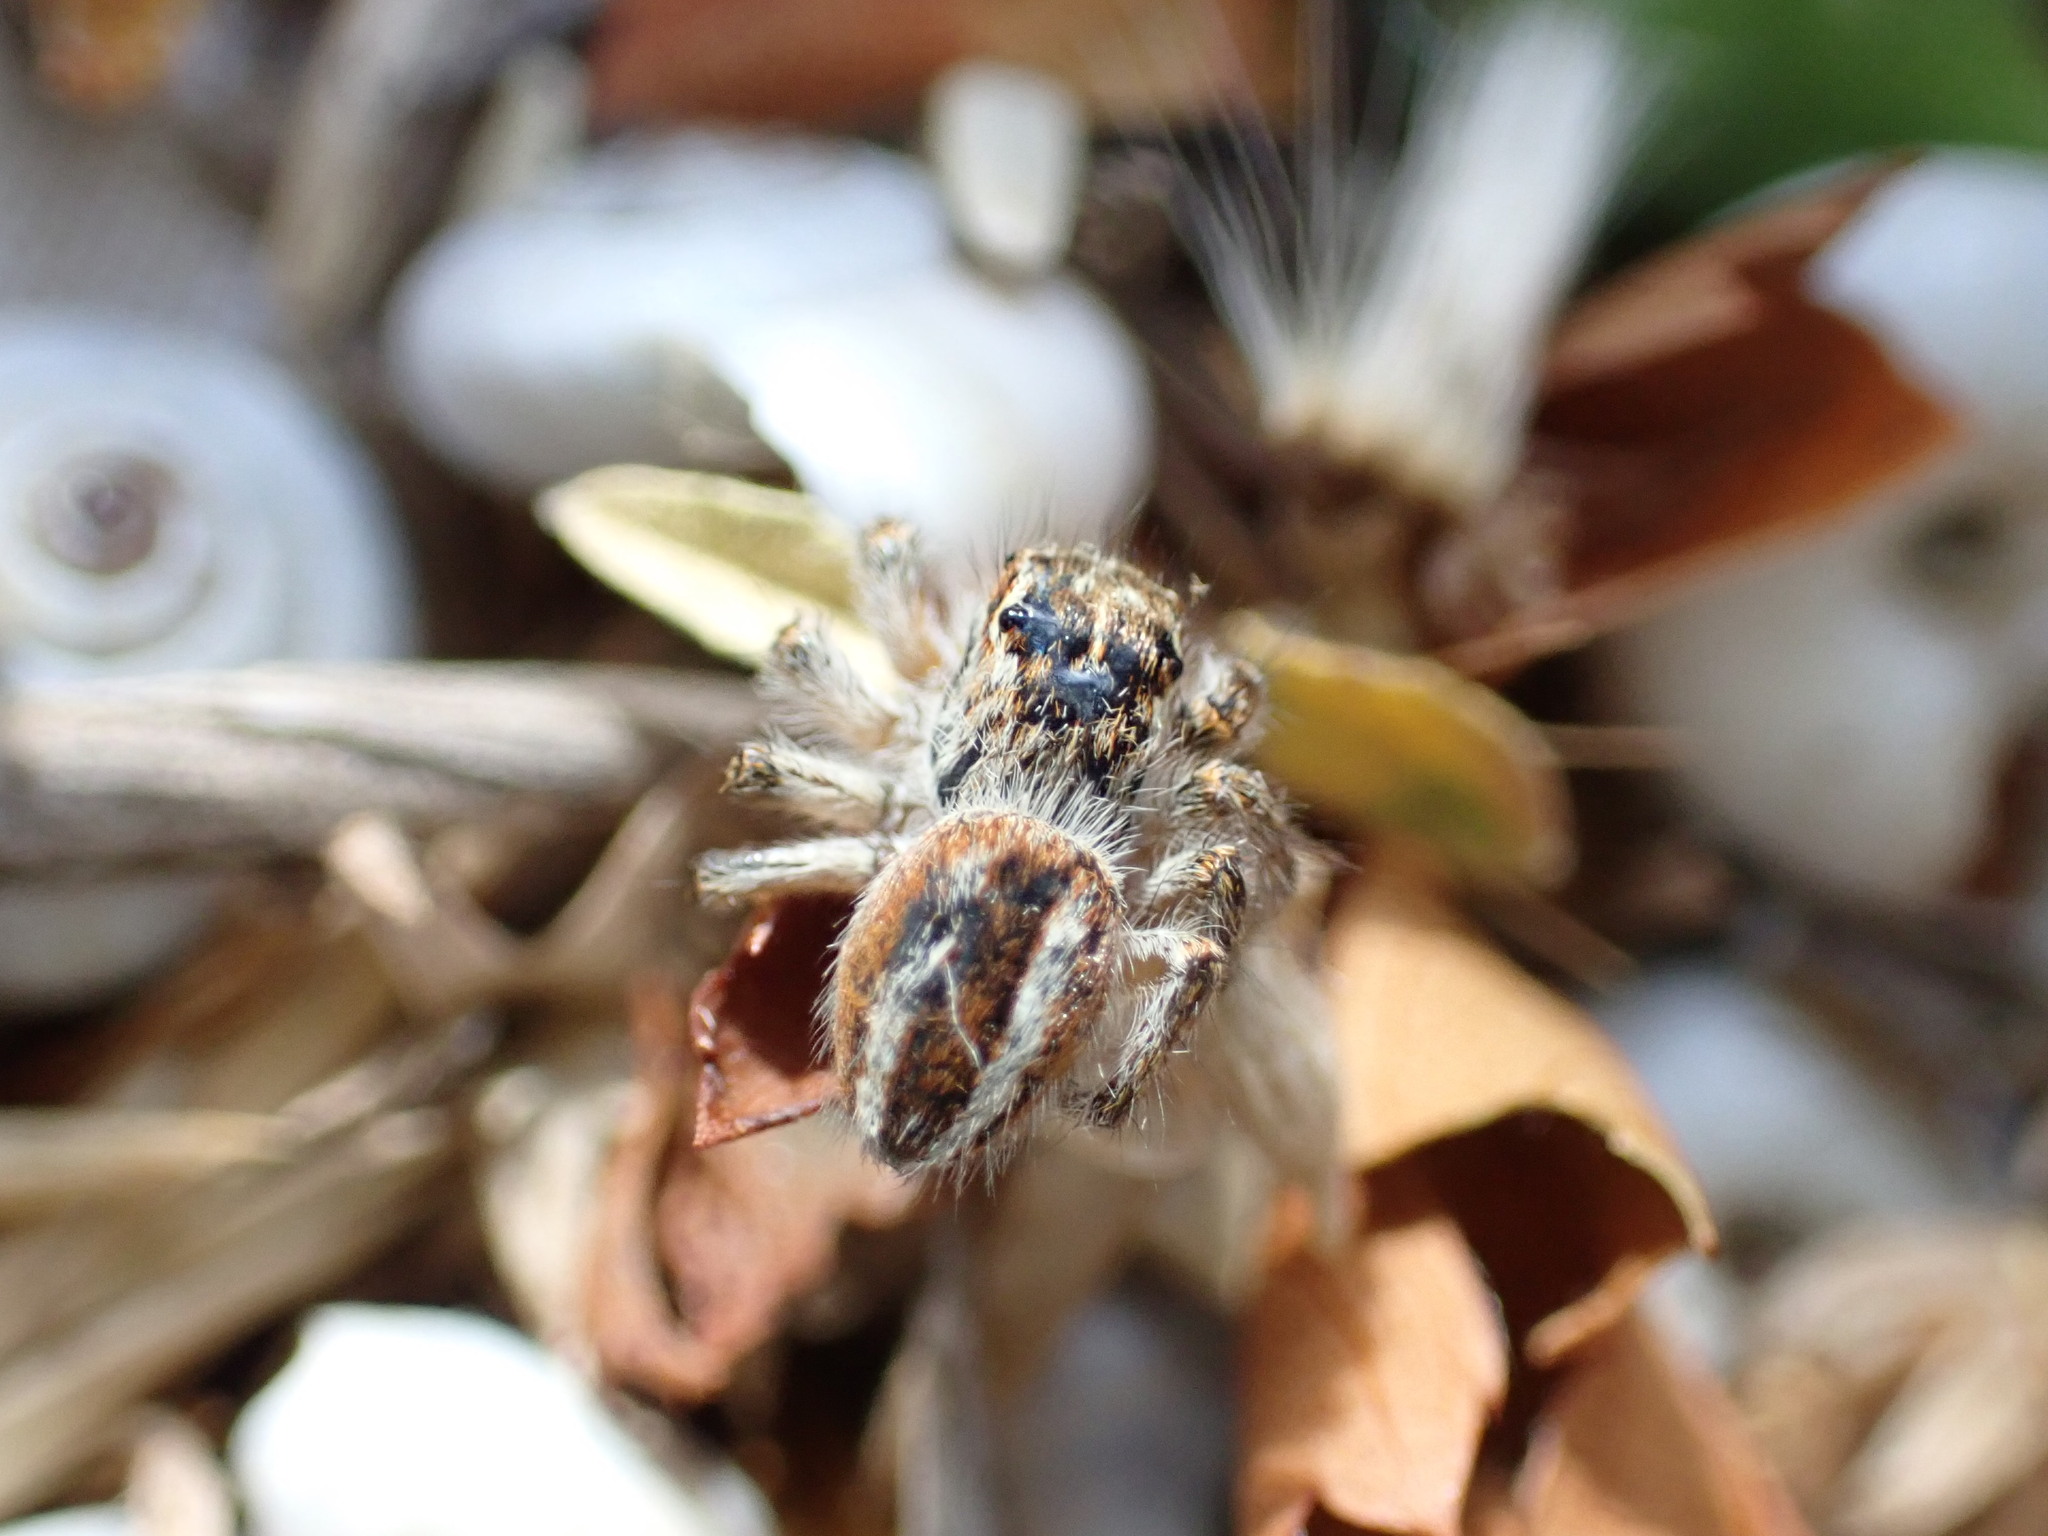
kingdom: Animalia
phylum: Arthropoda
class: Arachnida
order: Araneae
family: Salticidae
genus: Philaeus
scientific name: Philaeus chrysops
